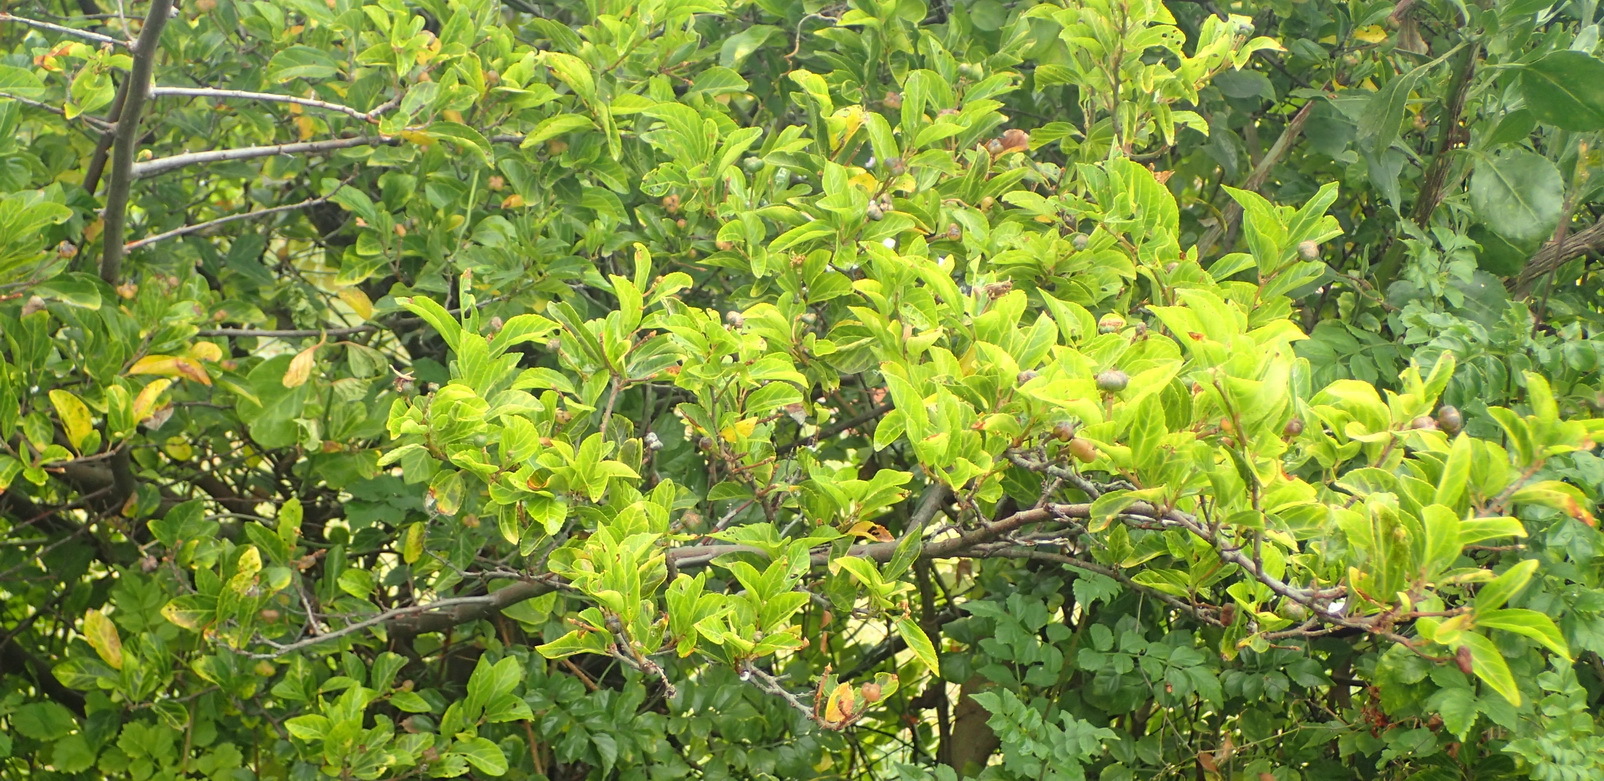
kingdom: Plantae
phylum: Tracheophyta
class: Magnoliopsida
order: Malvales
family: Malvaceae
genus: Grewia
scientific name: Grewia occidentalis
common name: Crossberry
